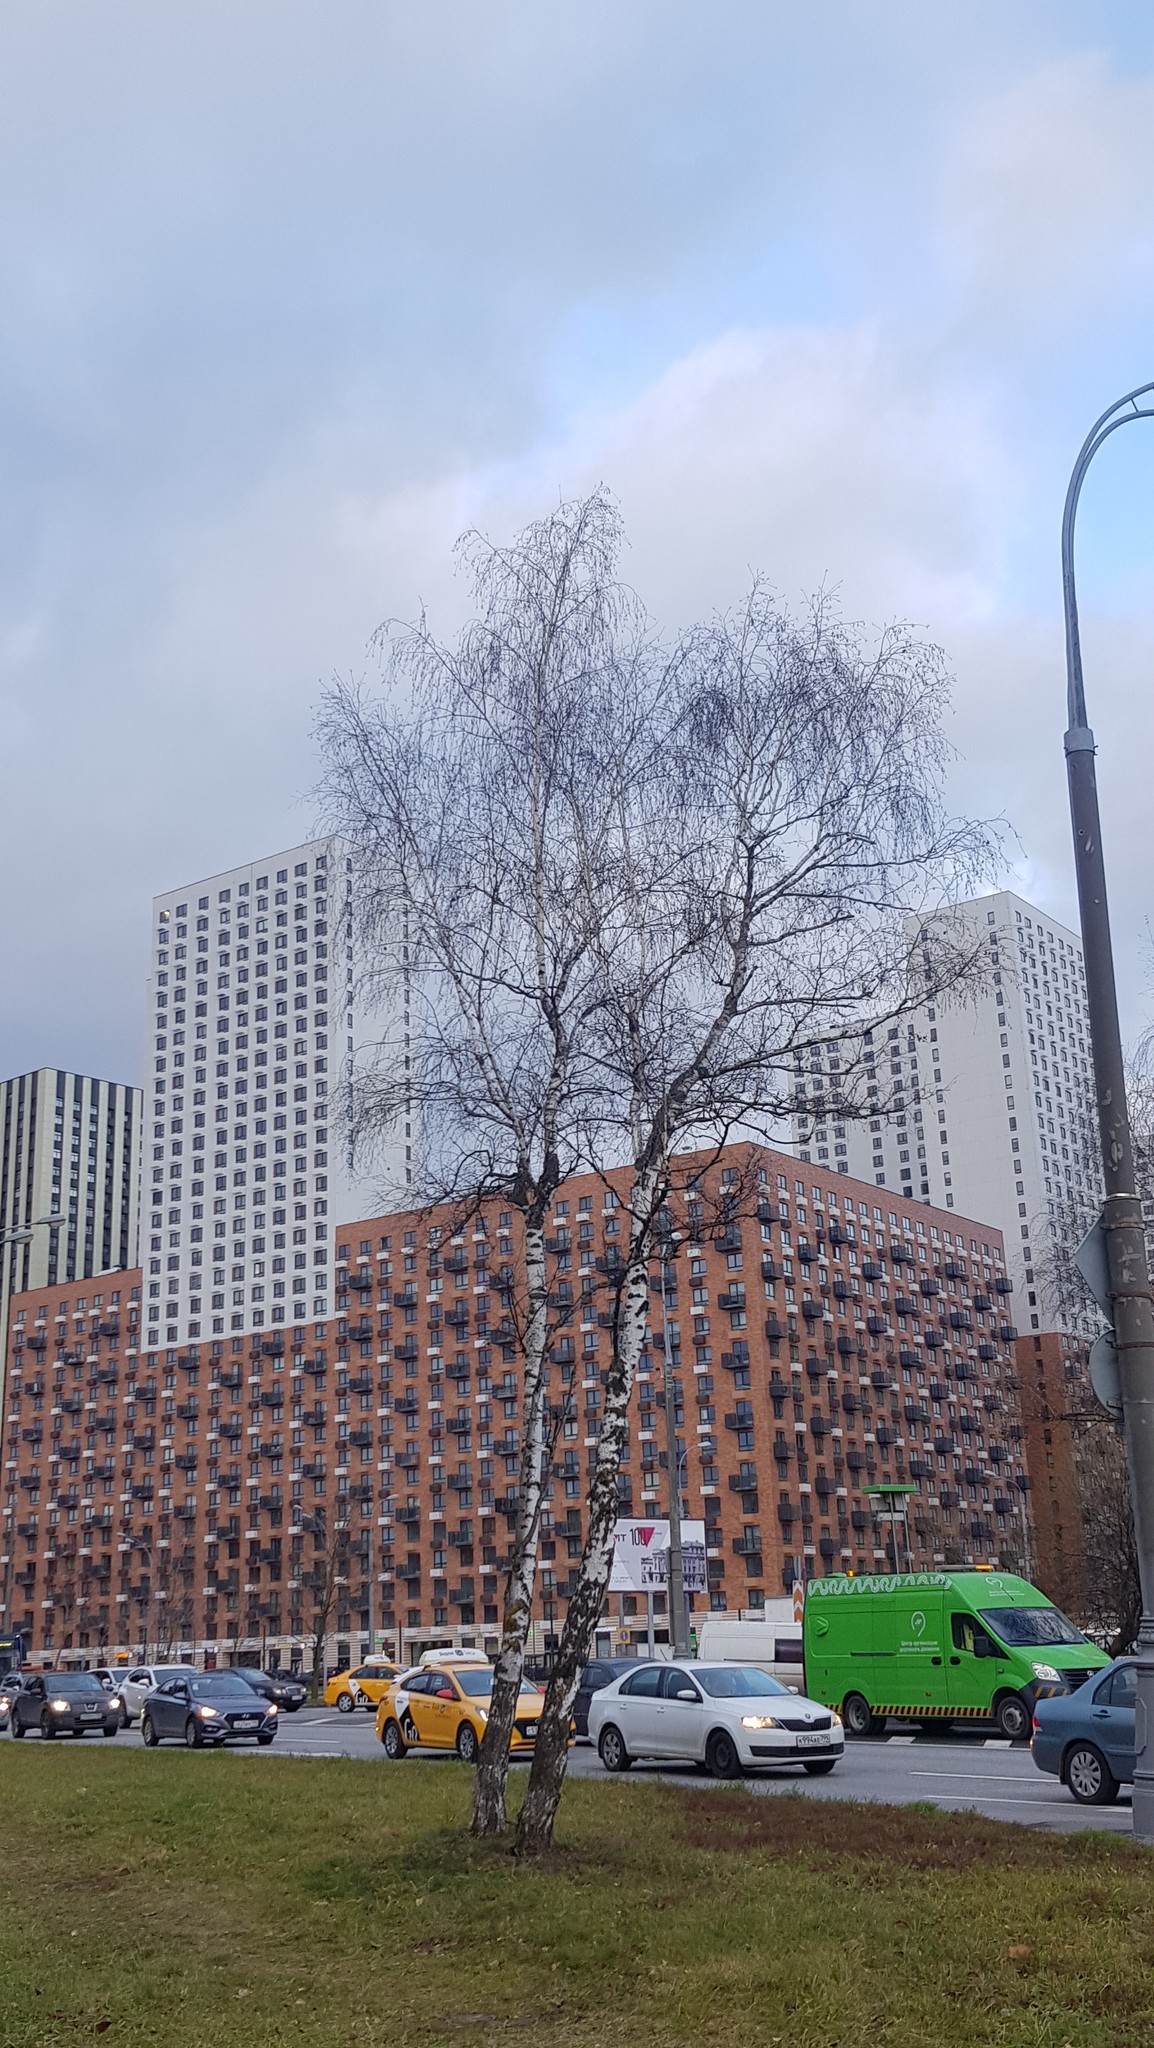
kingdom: Plantae
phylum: Tracheophyta
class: Magnoliopsida
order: Fagales
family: Betulaceae
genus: Betula
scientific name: Betula pendula
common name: Silver birch
